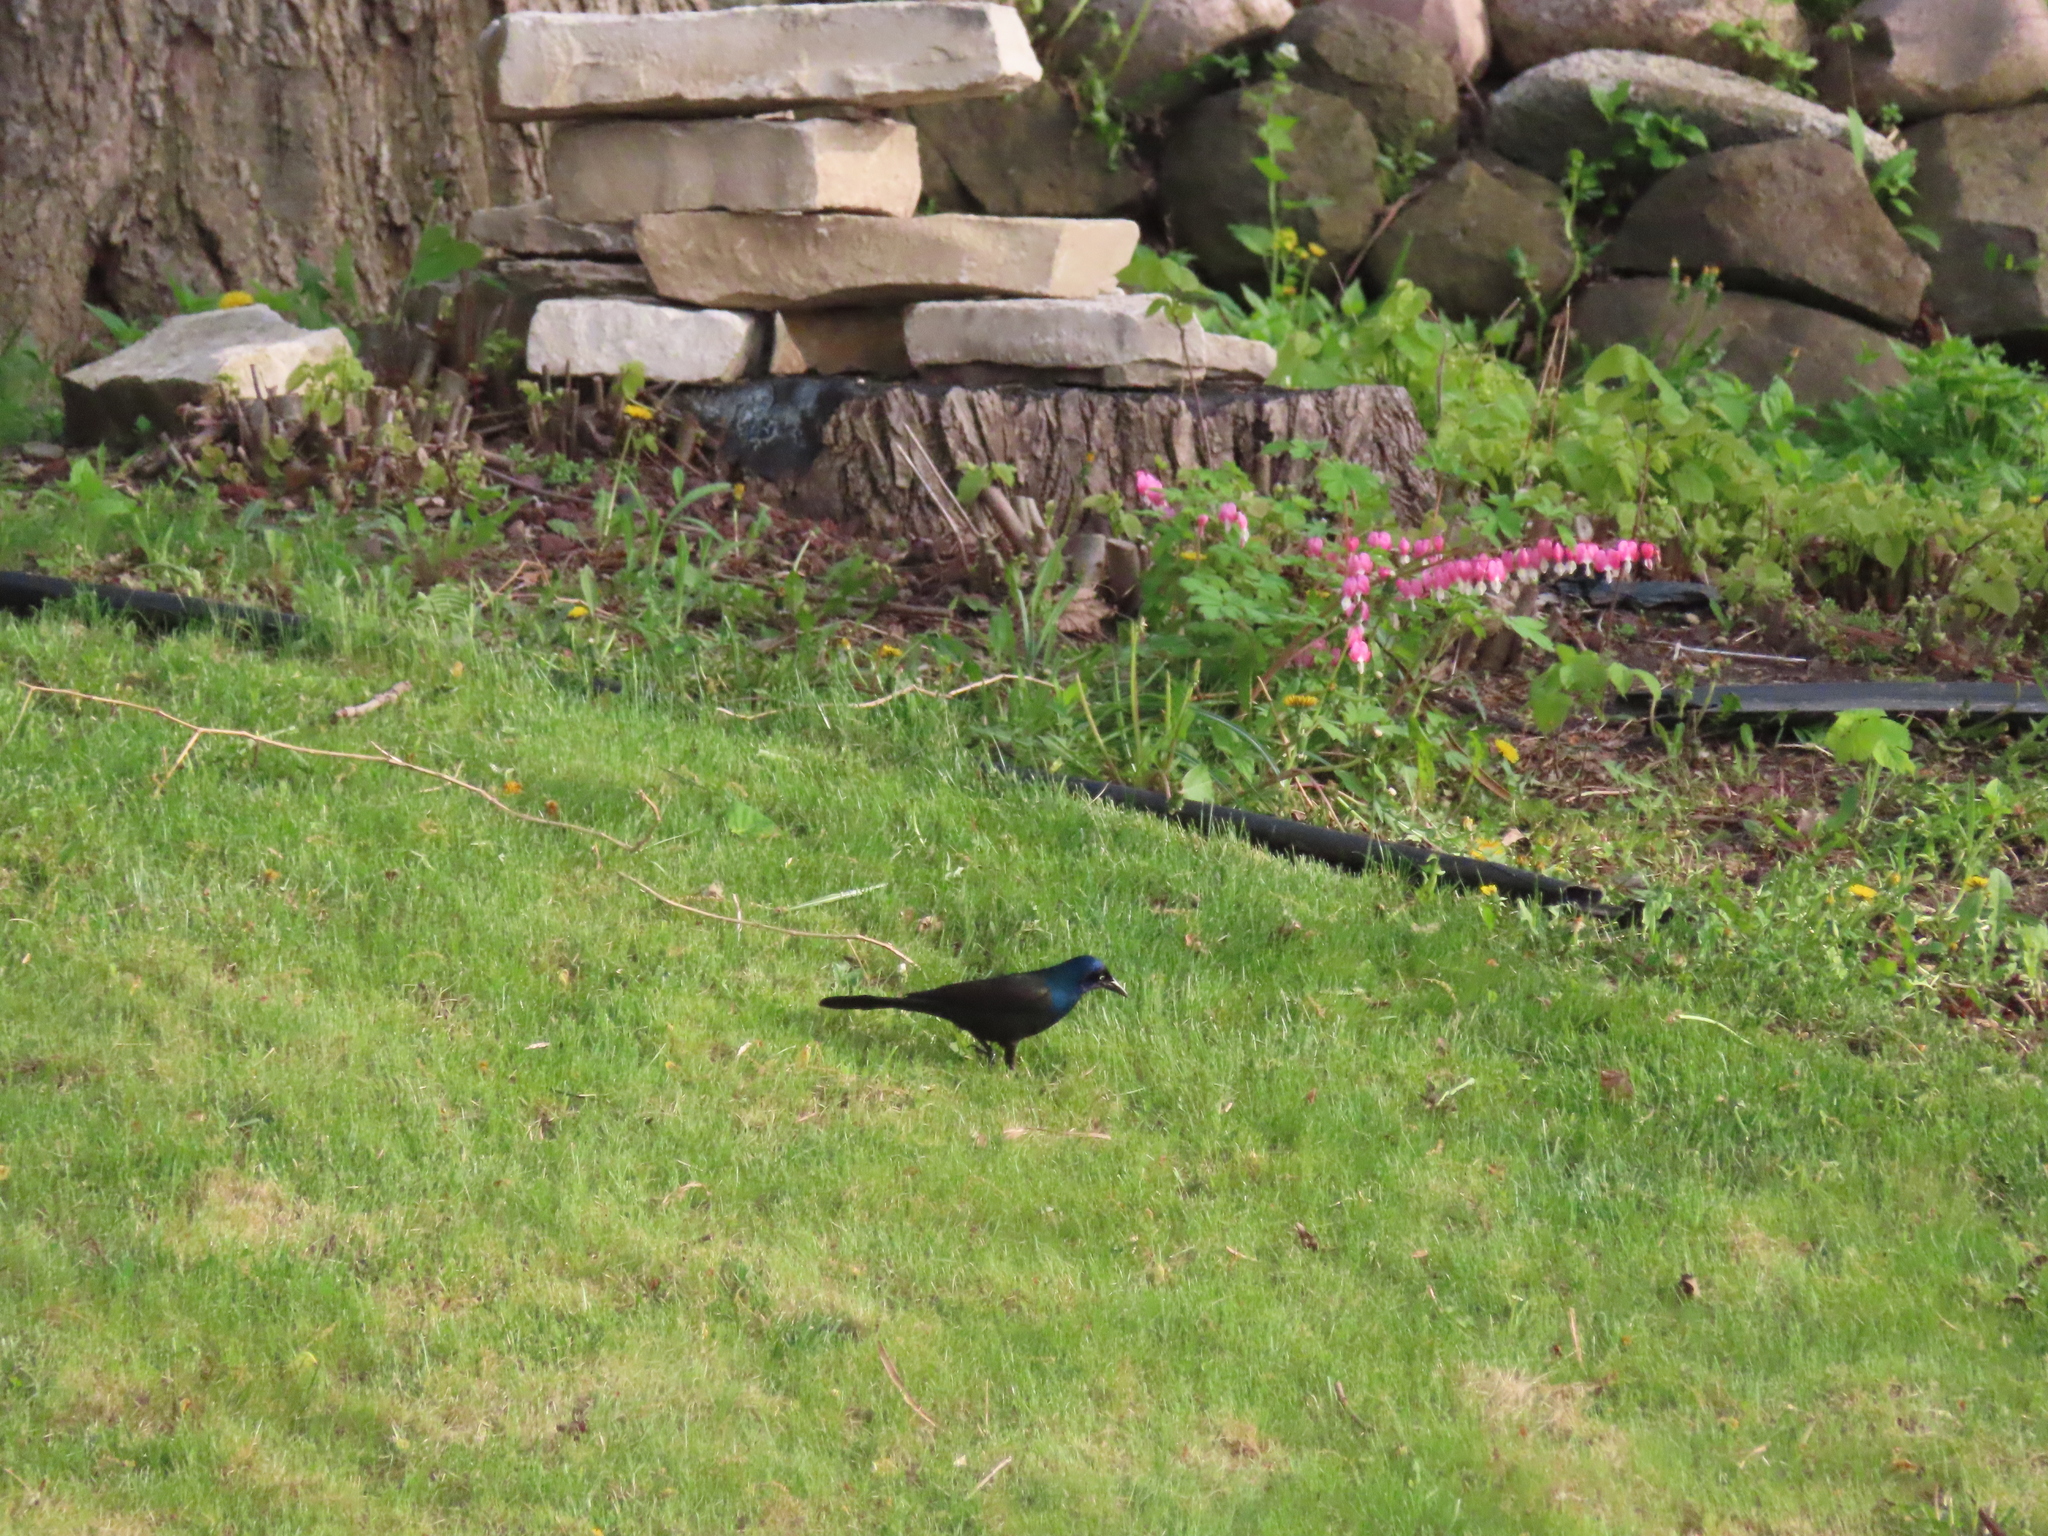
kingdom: Animalia
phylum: Chordata
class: Aves
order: Passeriformes
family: Icteridae
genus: Quiscalus
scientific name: Quiscalus quiscula
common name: Common grackle
